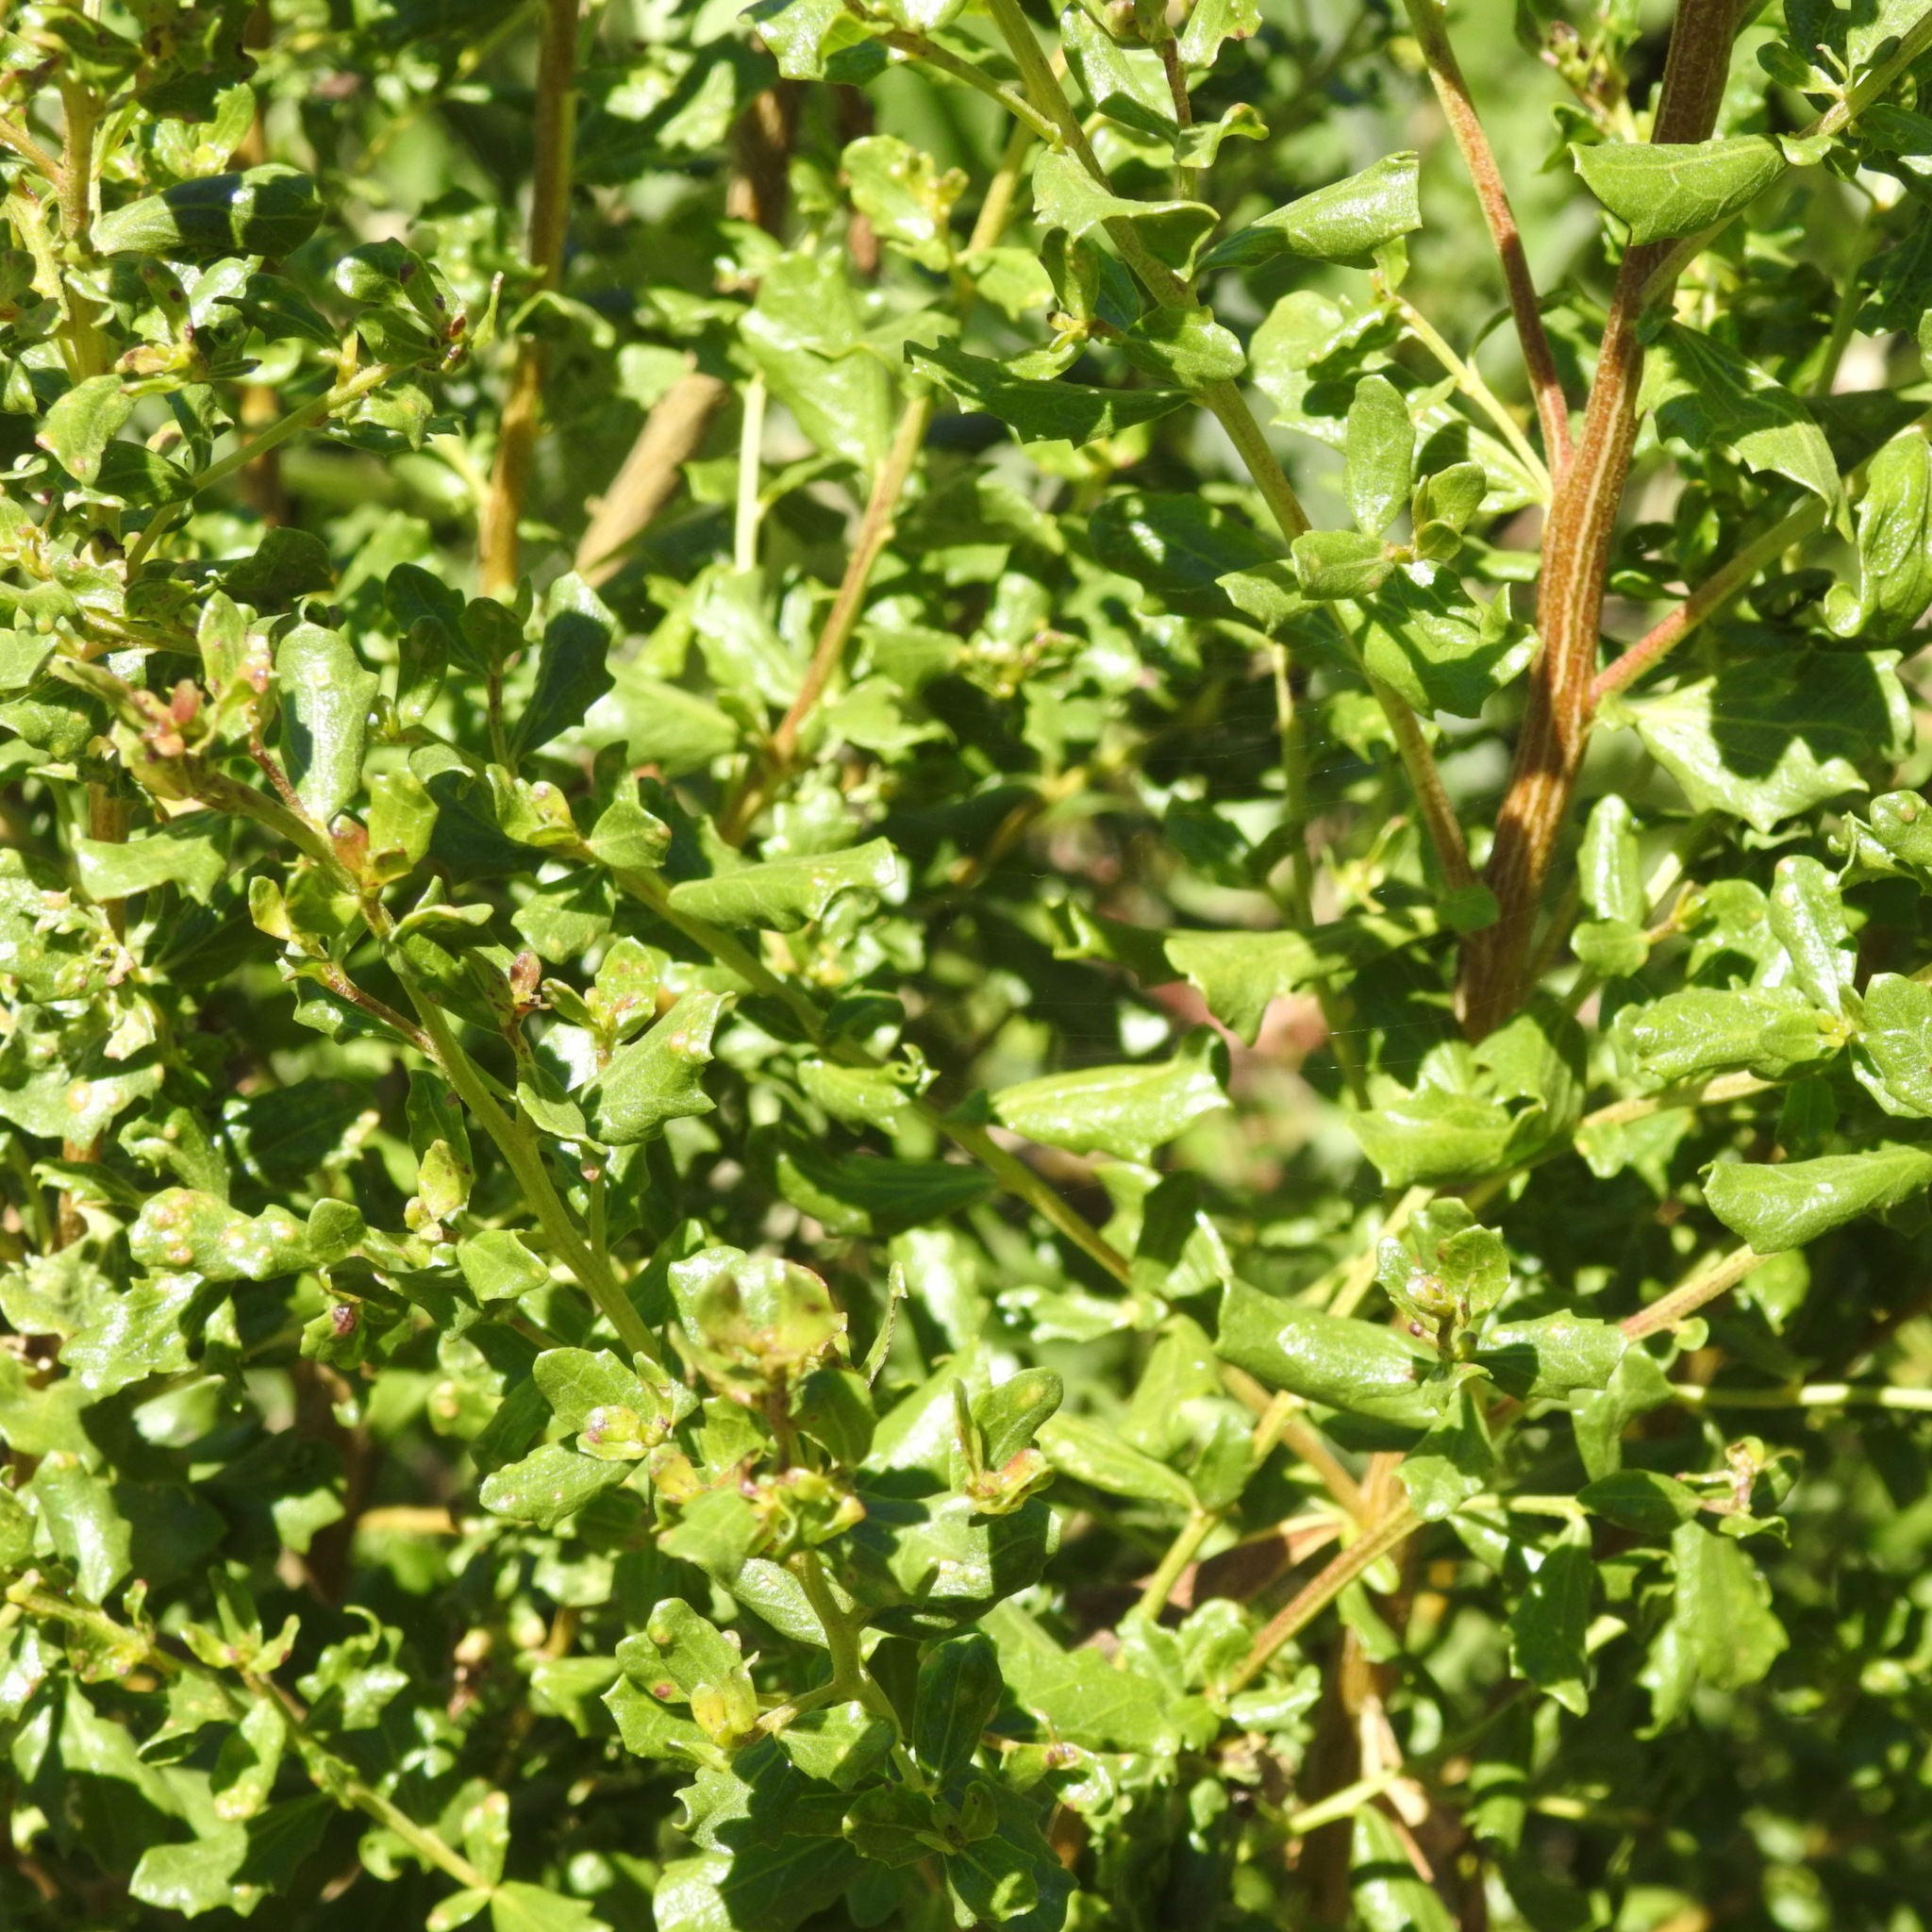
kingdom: Plantae
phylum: Tracheophyta
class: Magnoliopsida
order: Asterales
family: Asteraceae
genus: Baccharis
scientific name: Baccharis pilularis
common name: Coyotebrush
